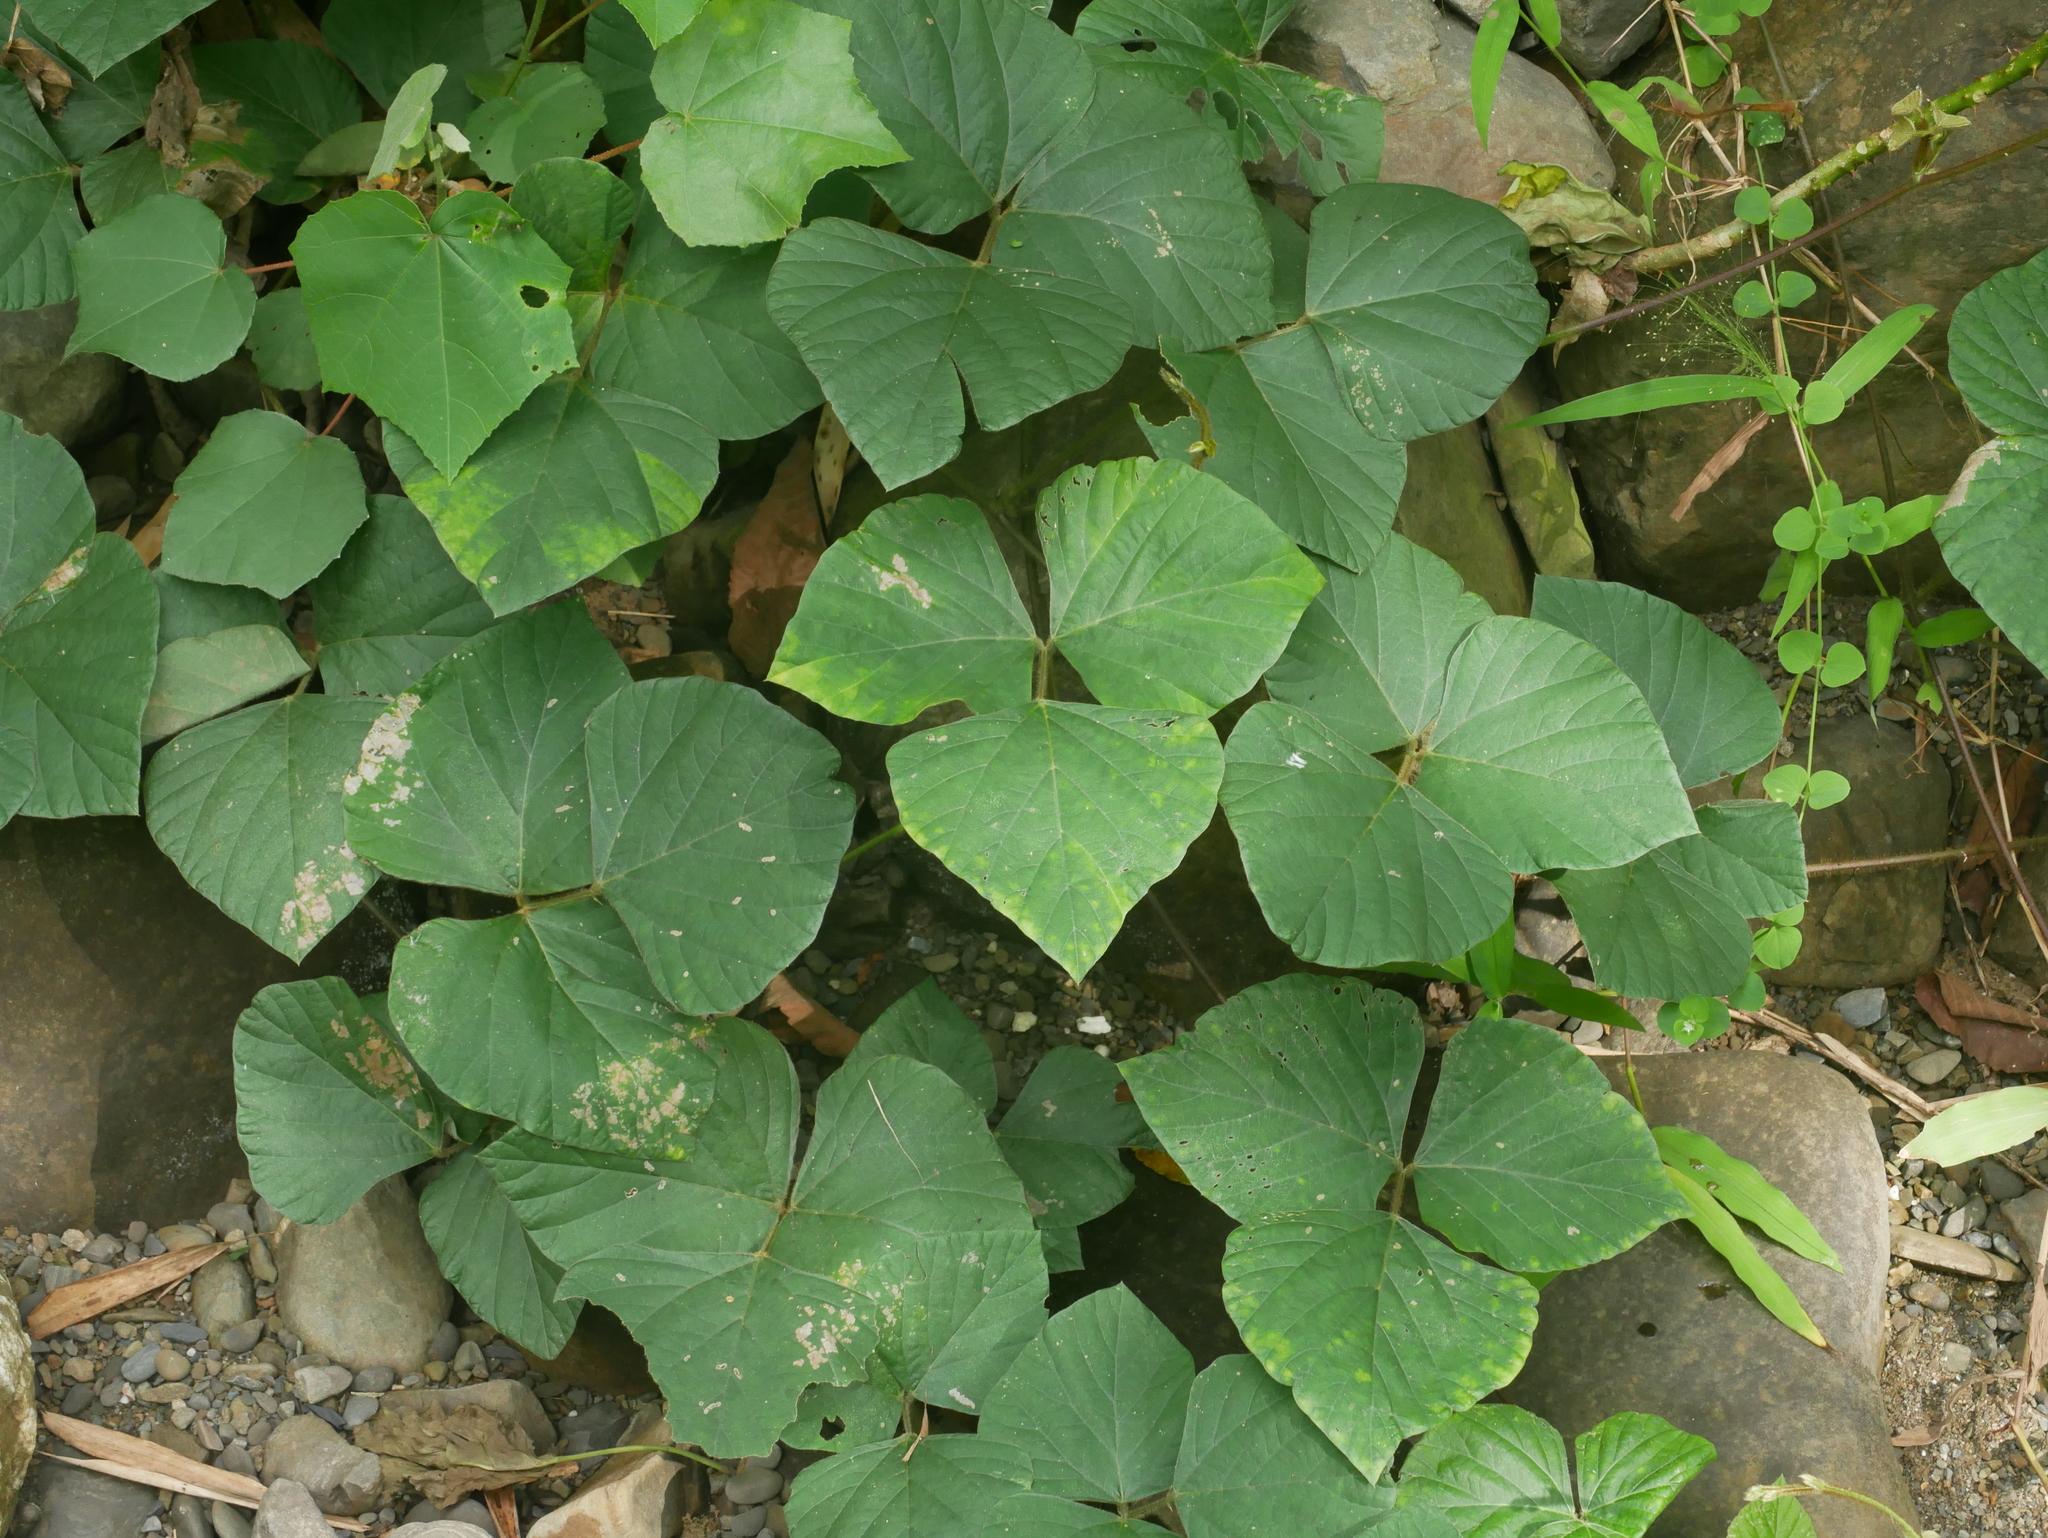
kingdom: Plantae
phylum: Tracheophyta
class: Magnoliopsida
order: Fabales
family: Fabaceae
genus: Pueraria
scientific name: Pueraria montana
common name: Kudzu
